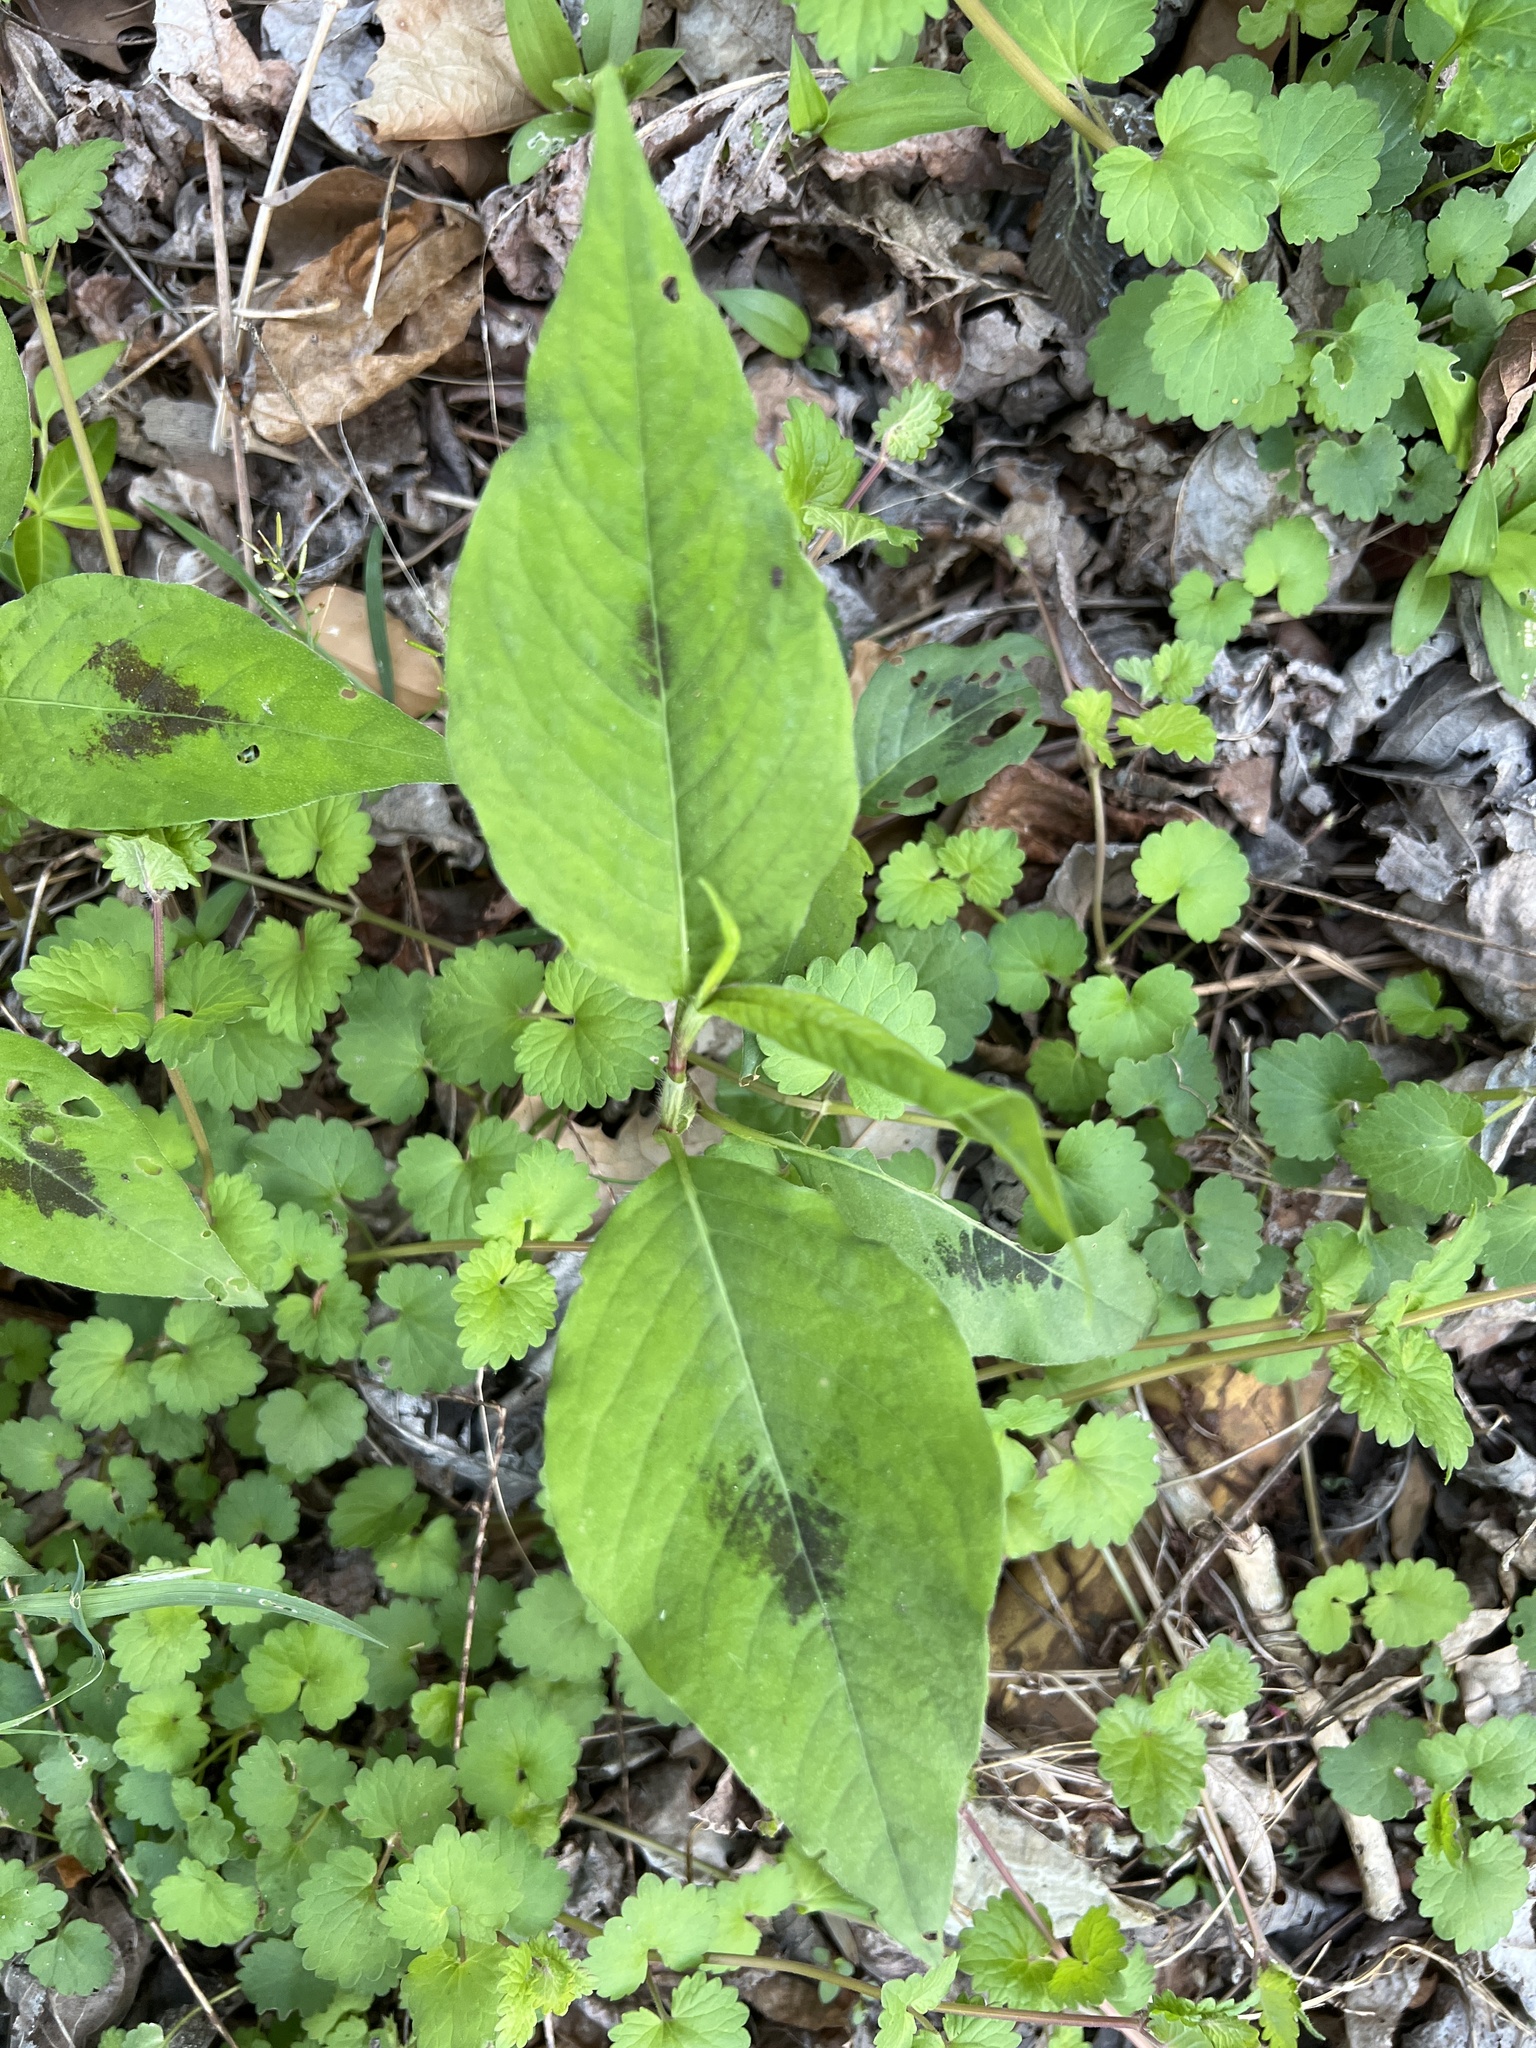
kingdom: Plantae
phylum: Tracheophyta
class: Magnoliopsida
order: Caryophyllales
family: Polygonaceae
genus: Persicaria
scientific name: Persicaria virginiana
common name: Jumpseed
